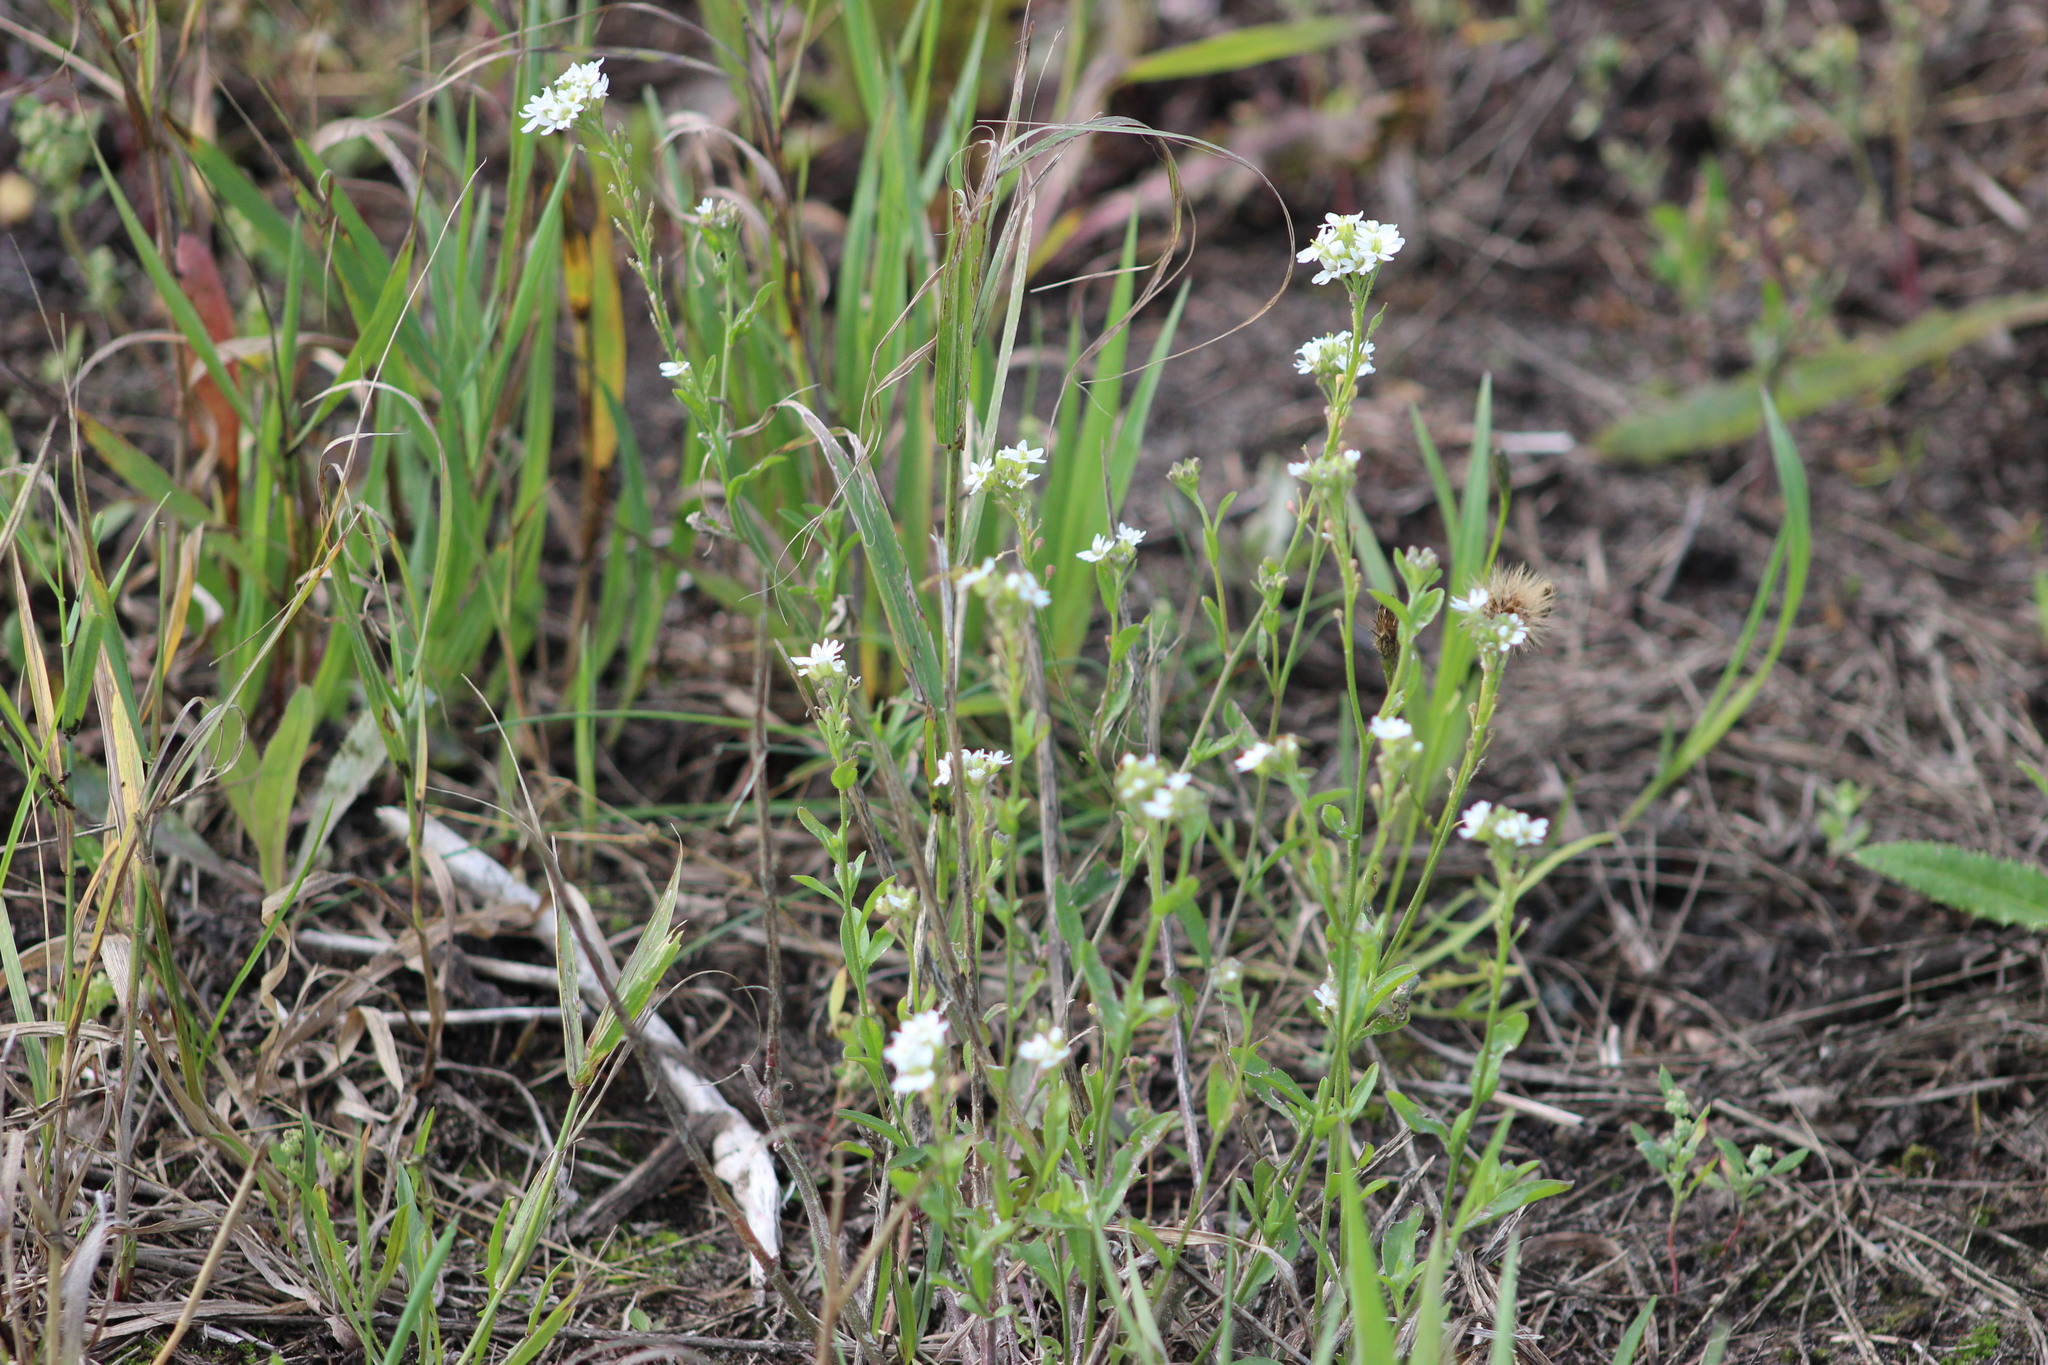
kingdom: Plantae
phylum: Tracheophyta
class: Magnoliopsida
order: Brassicales
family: Brassicaceae
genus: Berteroa
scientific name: Berteroa incana
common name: Hoary alison
